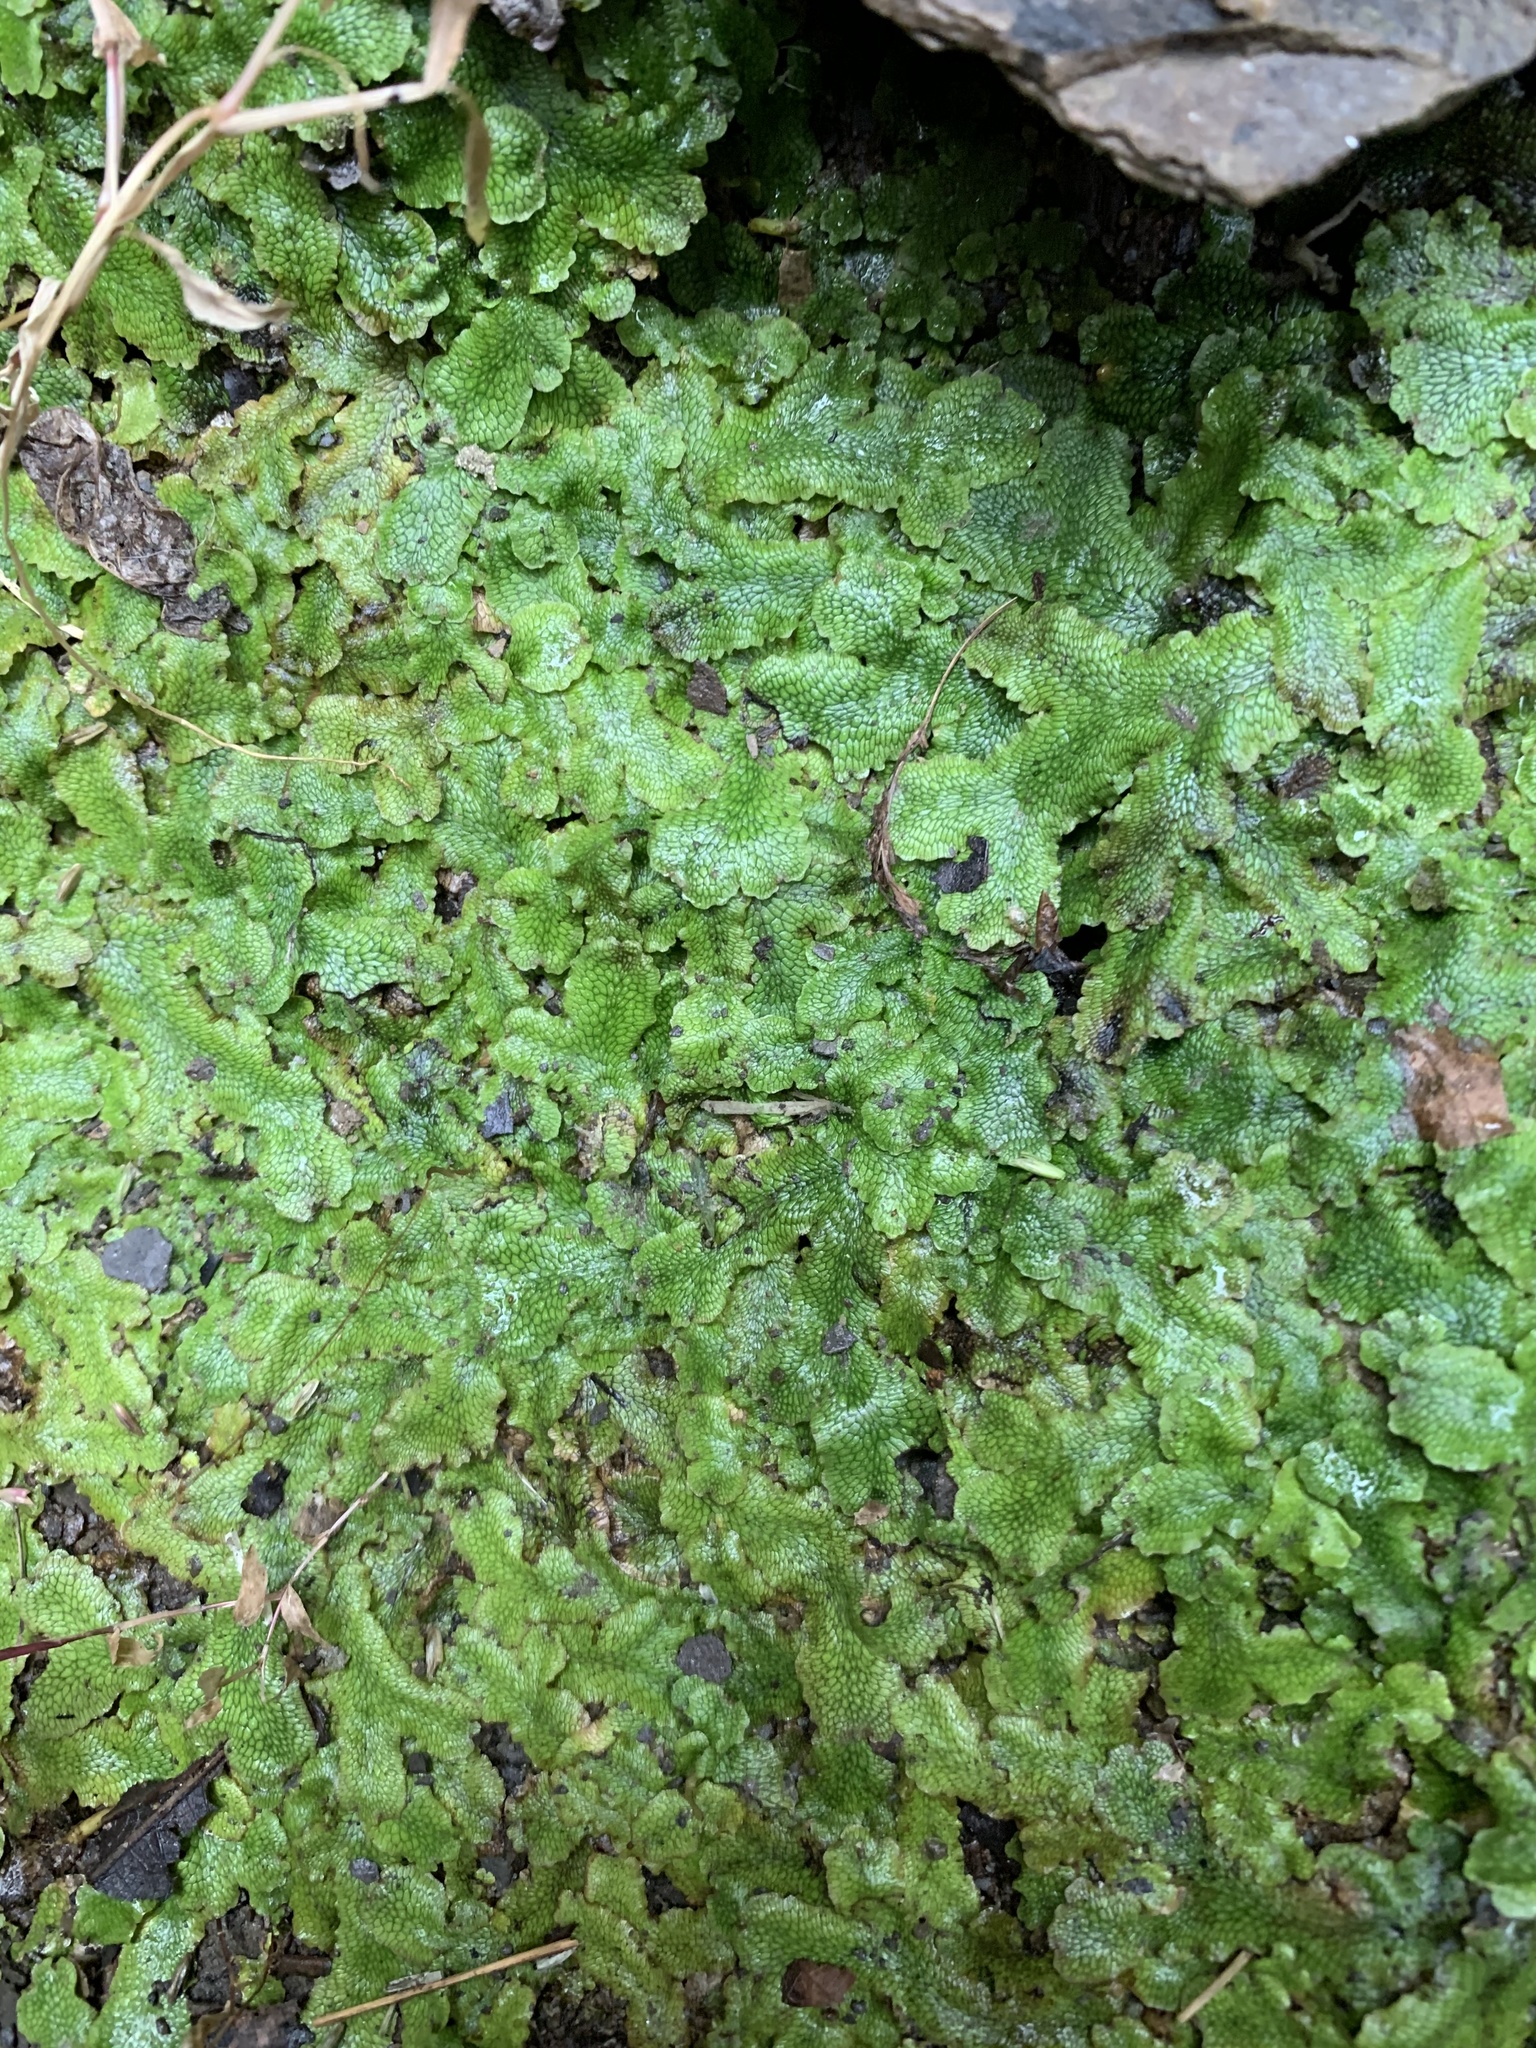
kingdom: Plantae
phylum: Marchantiophyta
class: Marchantiopsida
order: Marchantiales
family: Conocephalaceae
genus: Conocephalum
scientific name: Conocephalum salebrosum
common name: Cat-tongue liverwort
